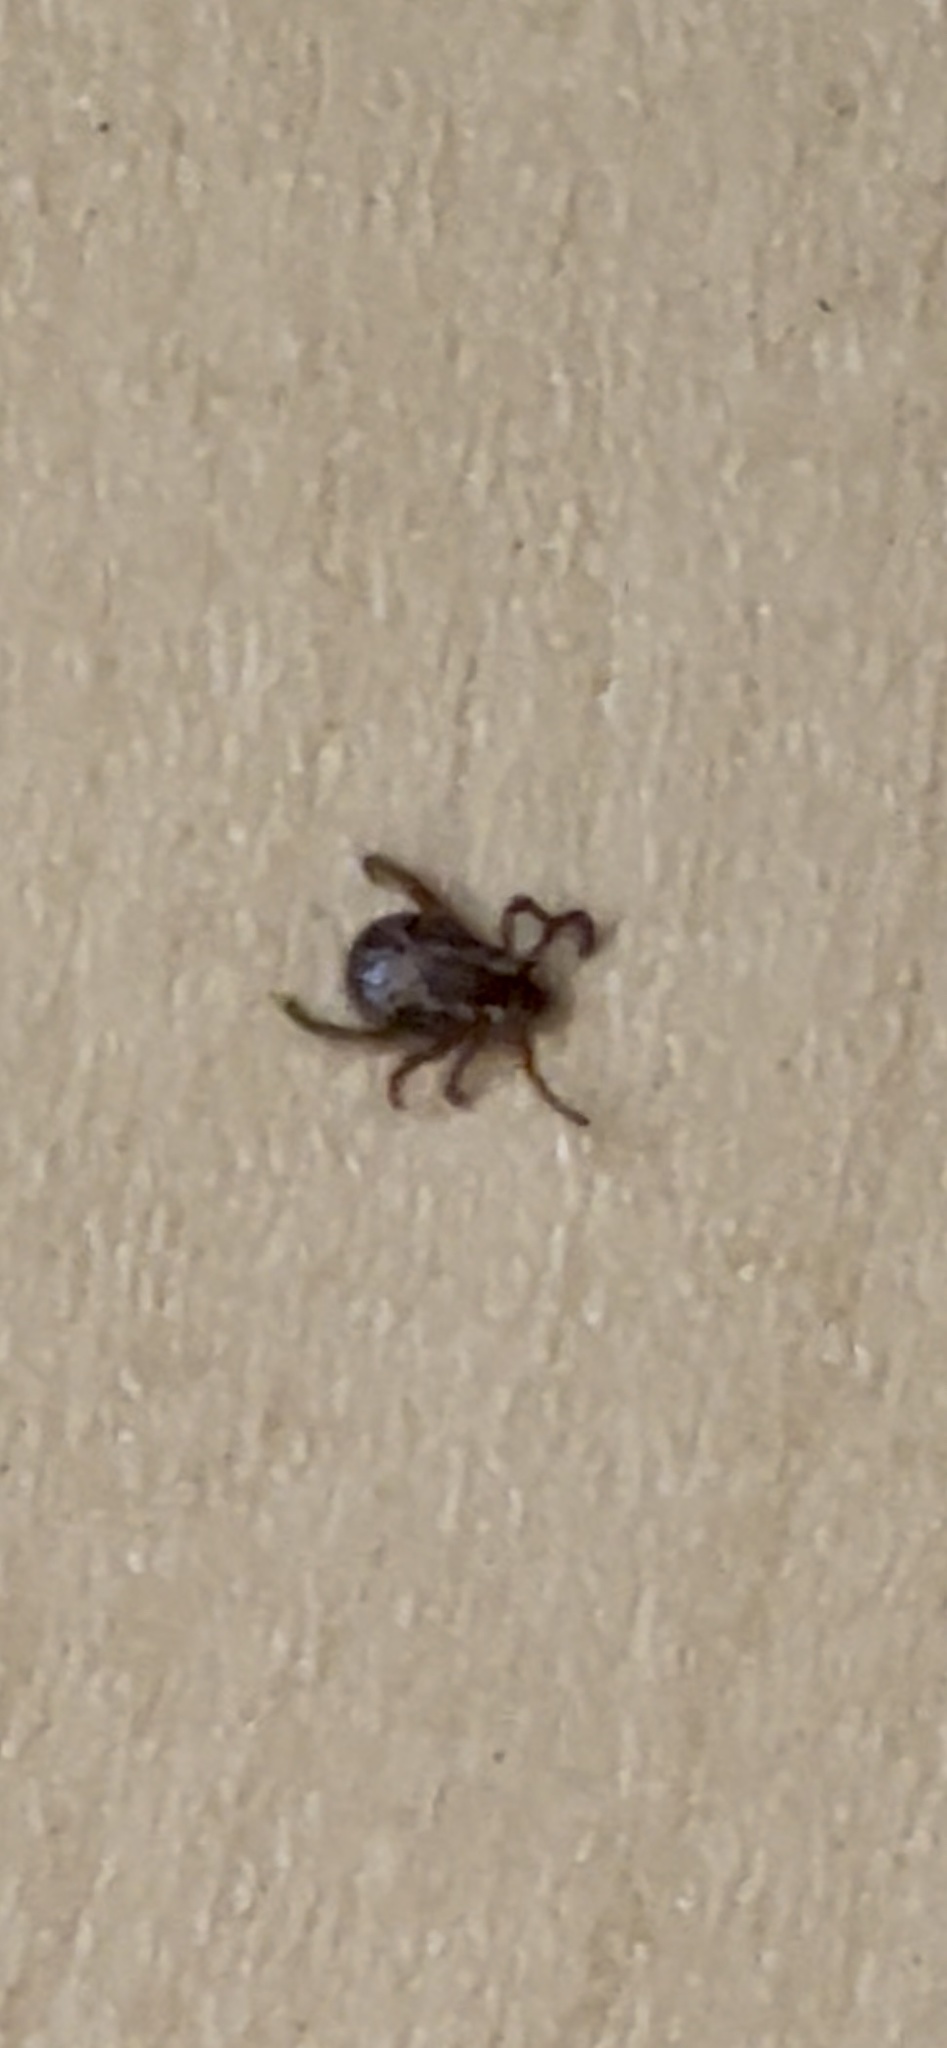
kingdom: Animalia
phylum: Arthropoda
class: Arachnida
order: Ixodida
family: Ixodidae
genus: Dermacentor
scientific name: Dermacentor variabilis
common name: American dog tick
